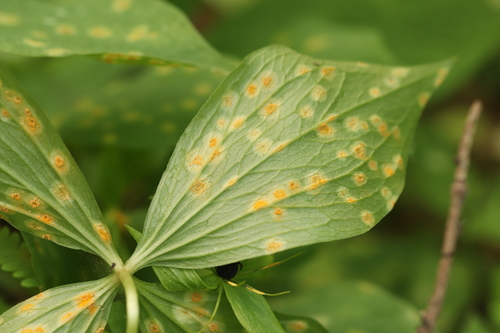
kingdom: Fungi
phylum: Basidiomycota
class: Pucciniomycetes
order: Pucciniales
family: Pucciniaceae
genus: Puccinia
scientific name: Puccinia sessilis
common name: Arum rust
